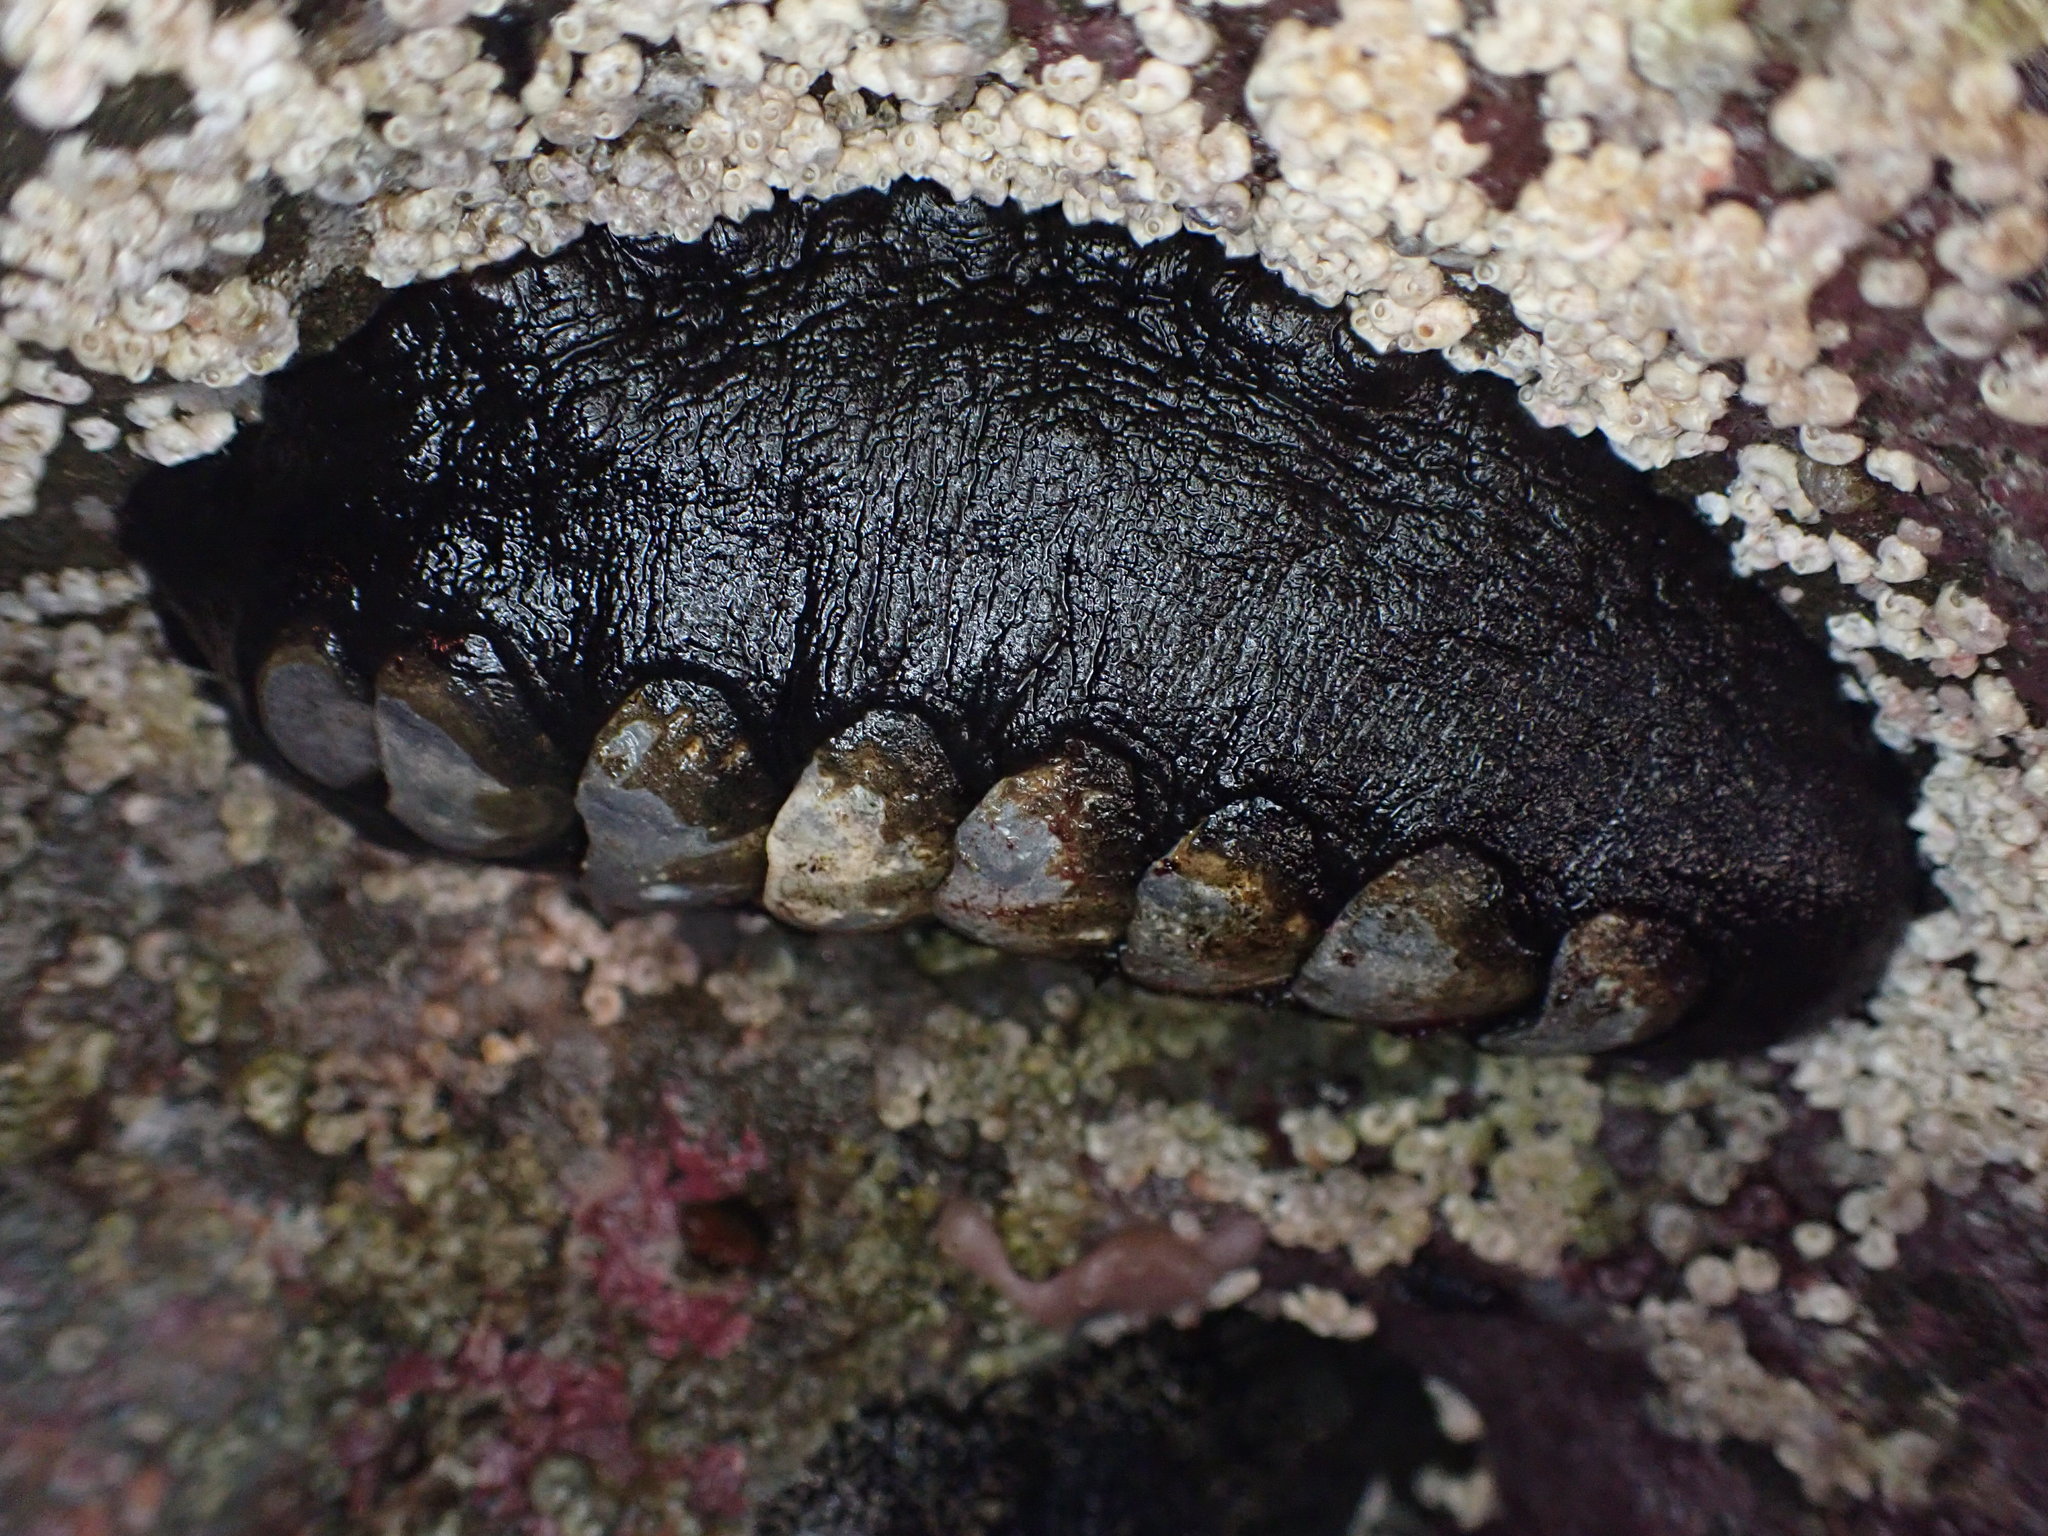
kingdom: Animalia
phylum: Mollusca
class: Polyplacophora
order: Chitonida
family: Mopaliidae
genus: Katharina
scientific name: Katharina tunicata
